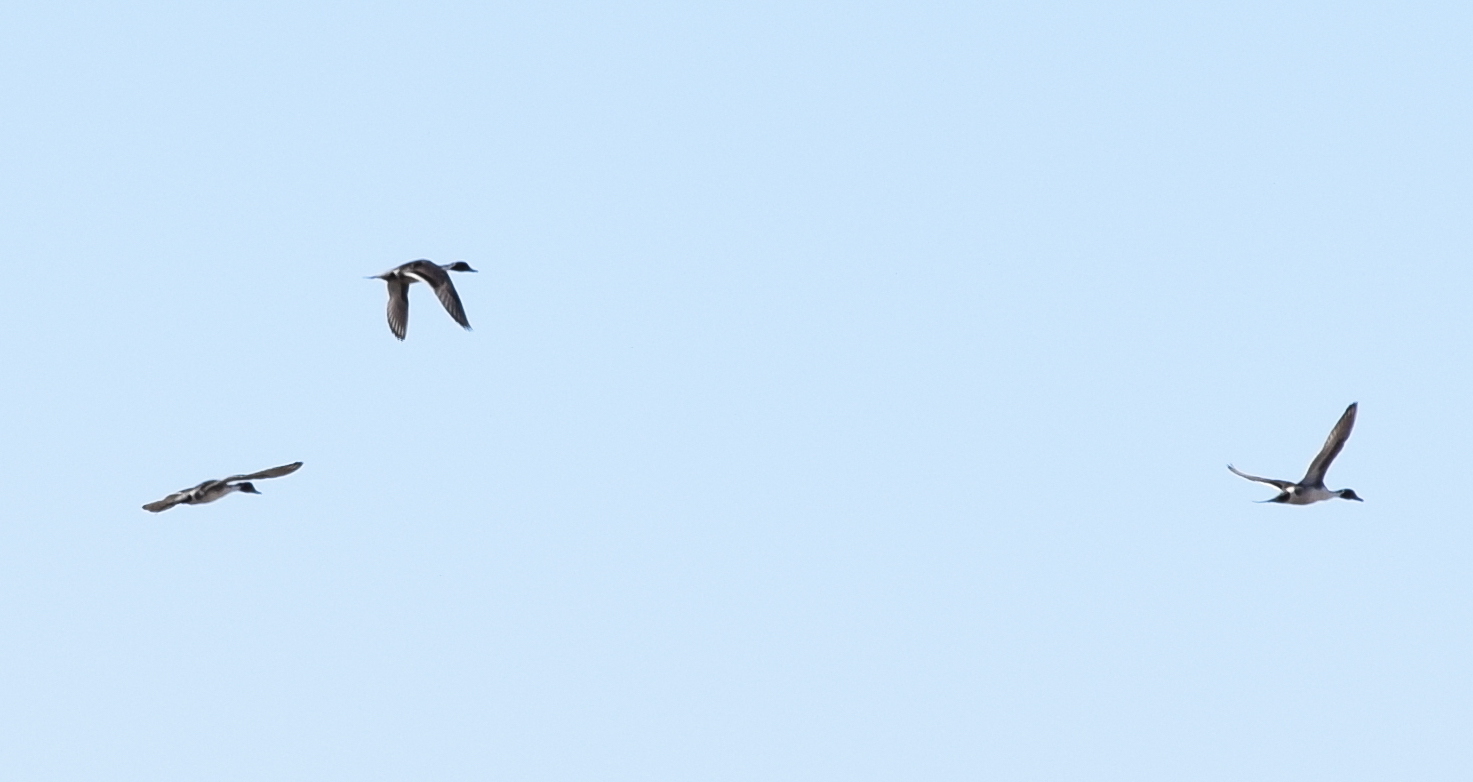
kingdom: Animalia
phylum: Chordata
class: Aves
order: Anseriformes
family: Anatidae
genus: Anas
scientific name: Anas acuta
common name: Northern pintail
